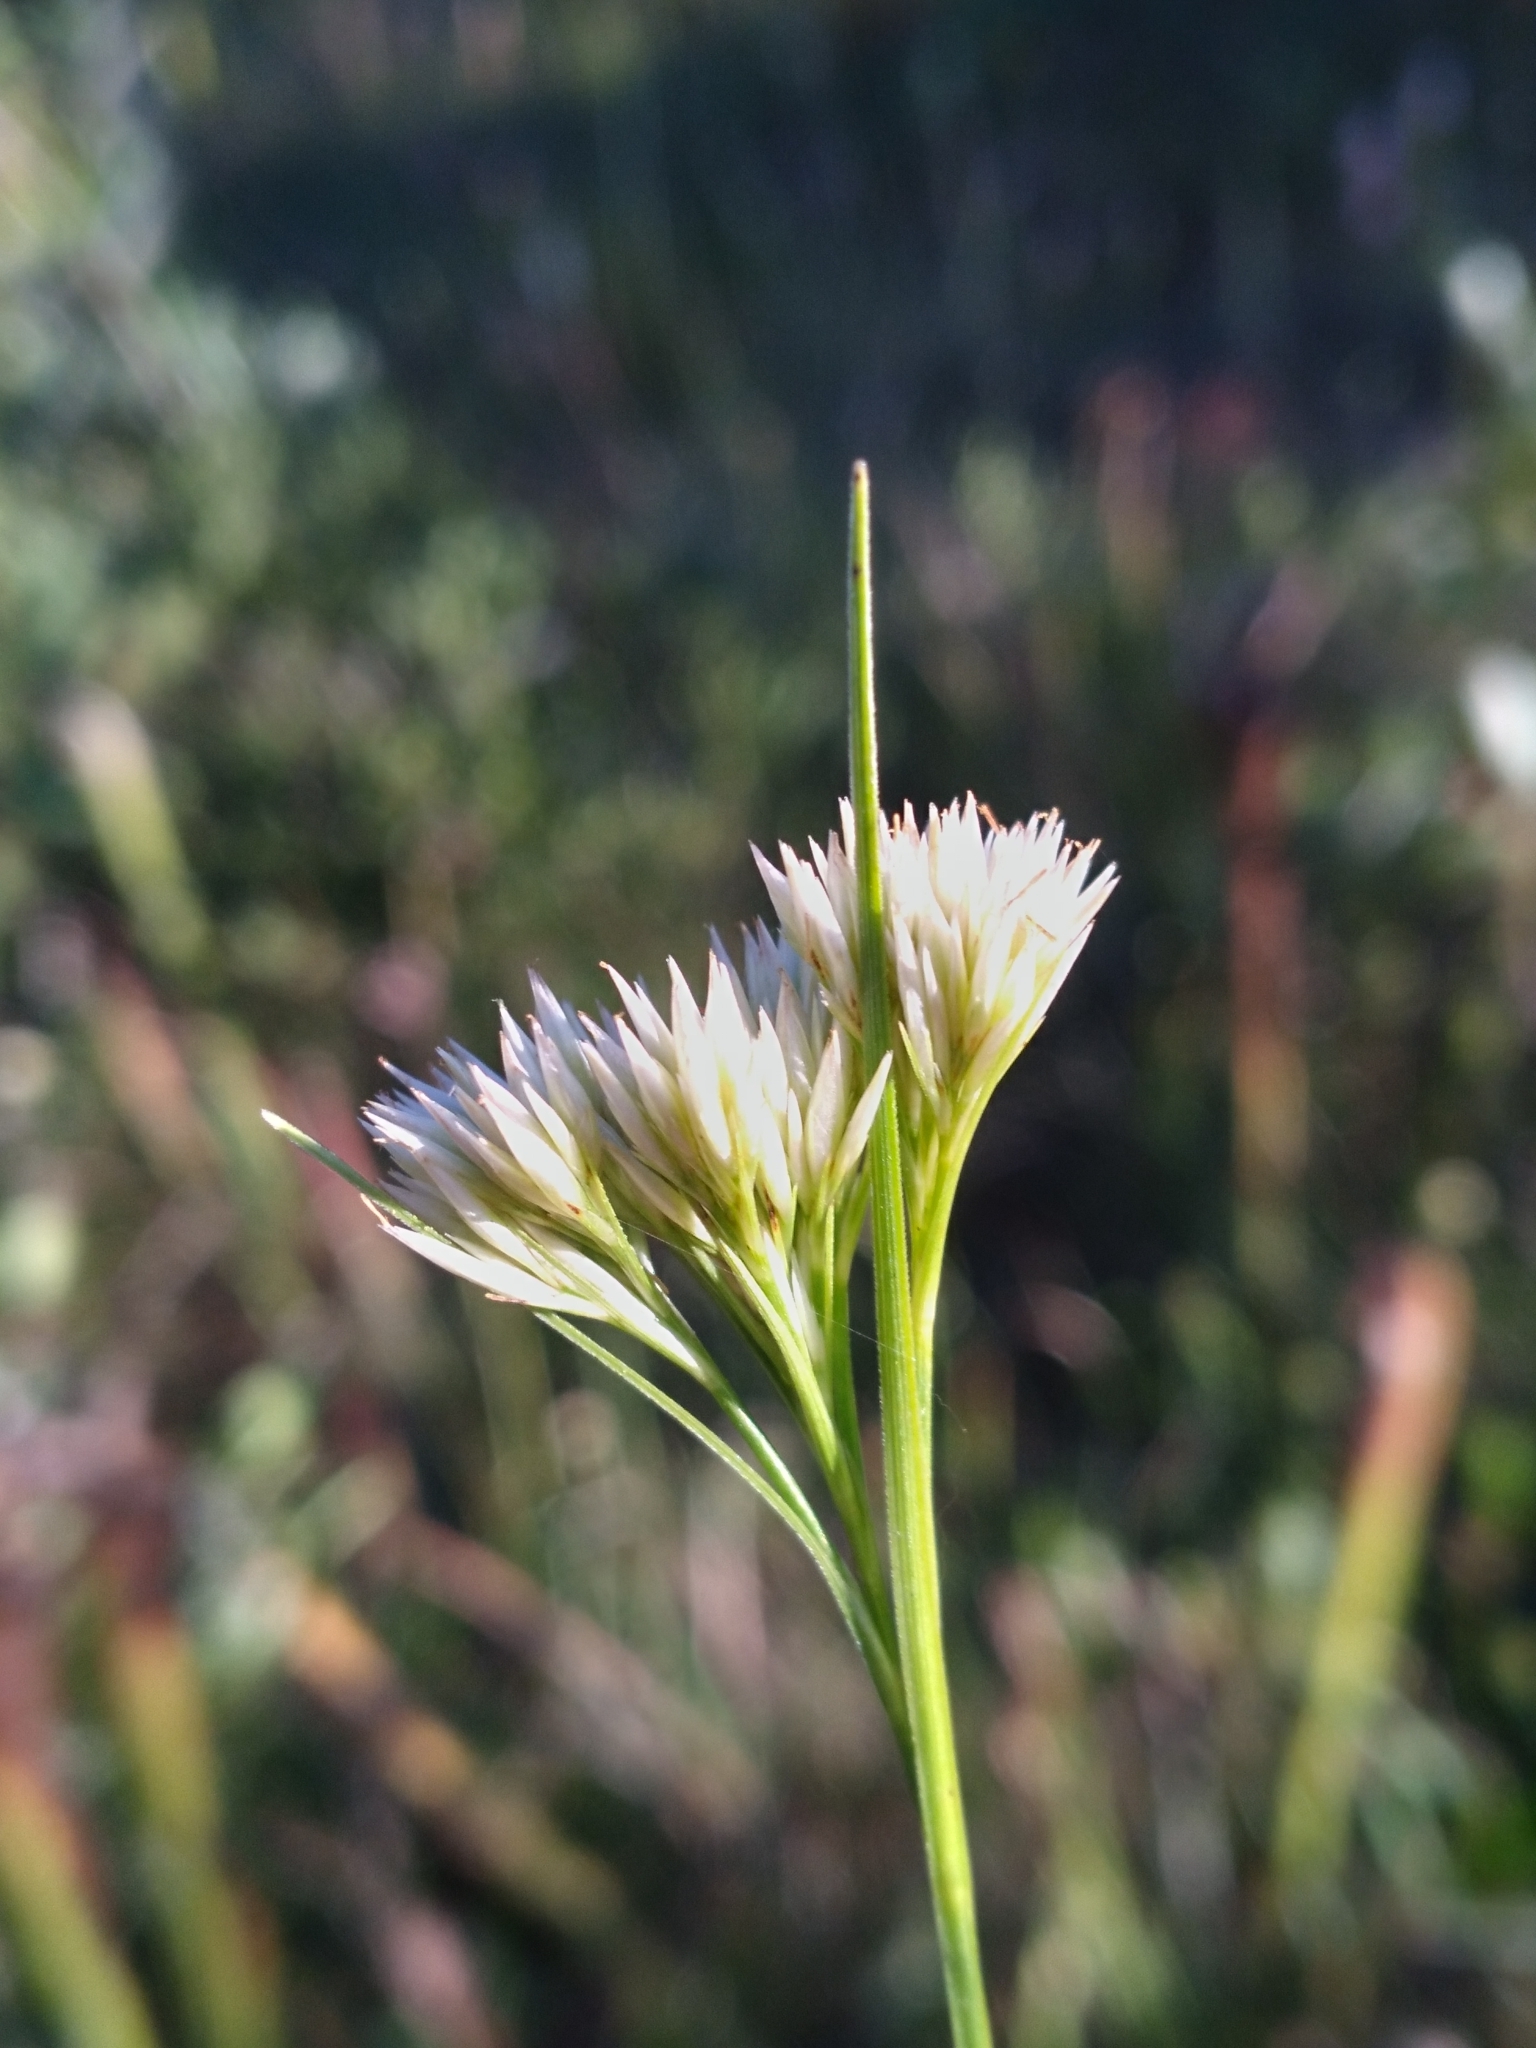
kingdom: Plantae
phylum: Tracheophyta
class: Liliopsida
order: Poales
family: Cyperaceae
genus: Rhynchospora
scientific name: Rhynchospora macra
